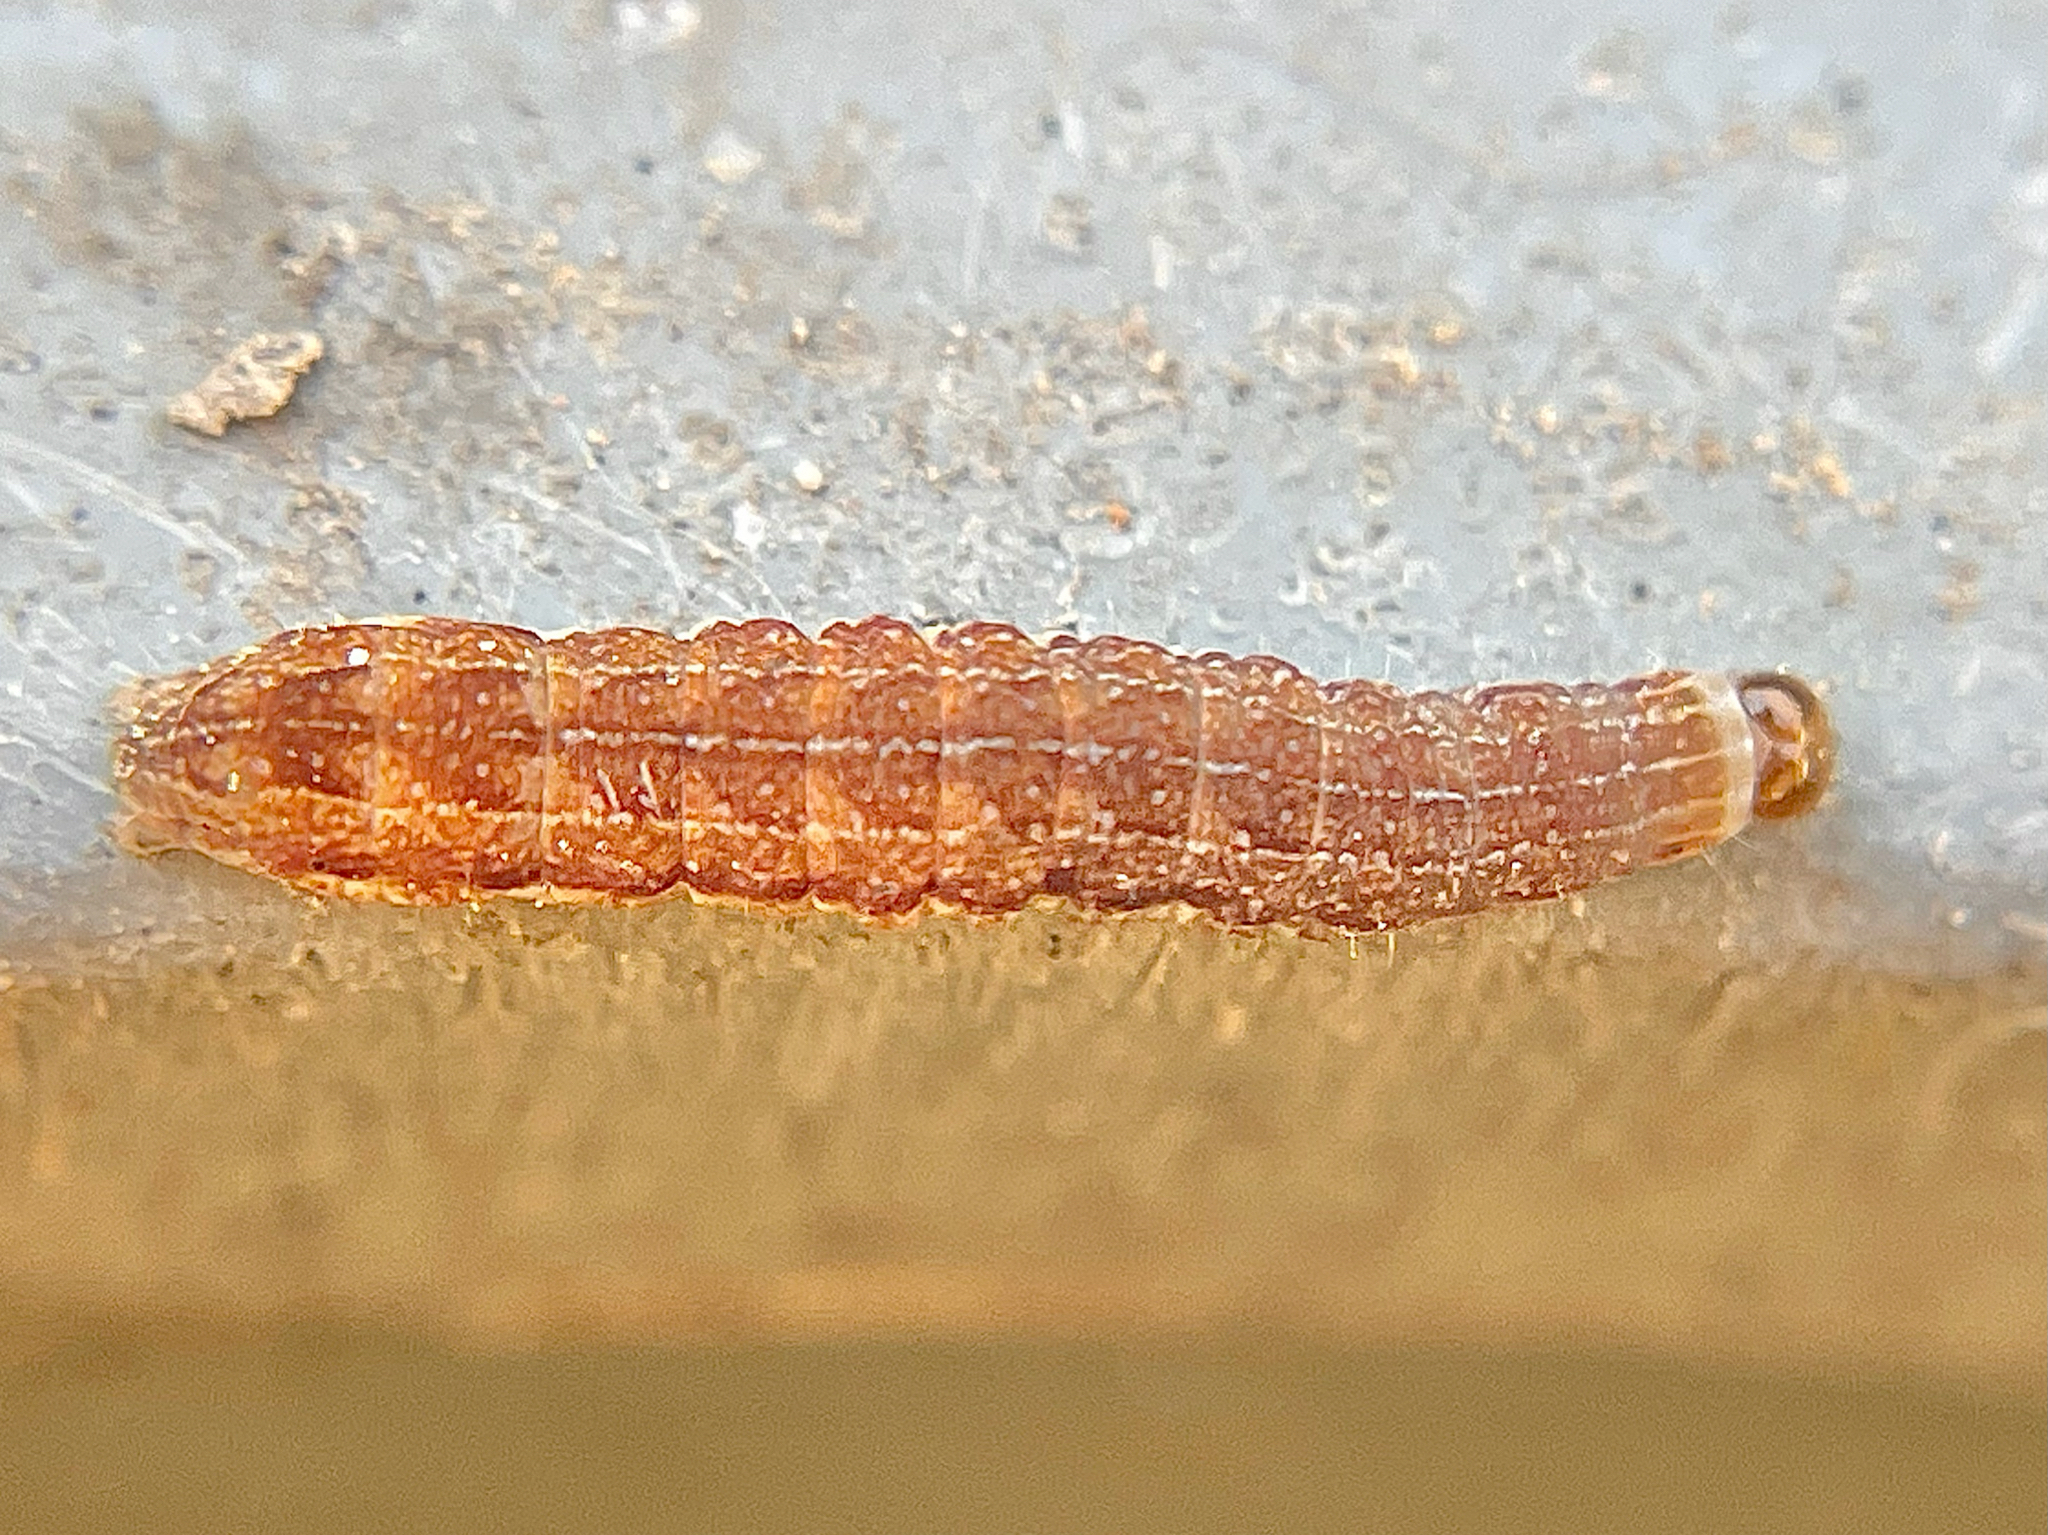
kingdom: Animalia
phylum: Arthropoda
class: Insecta
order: Lepidoptera
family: Noctuidae
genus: Agrochola
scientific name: Agrochola bicolorago
